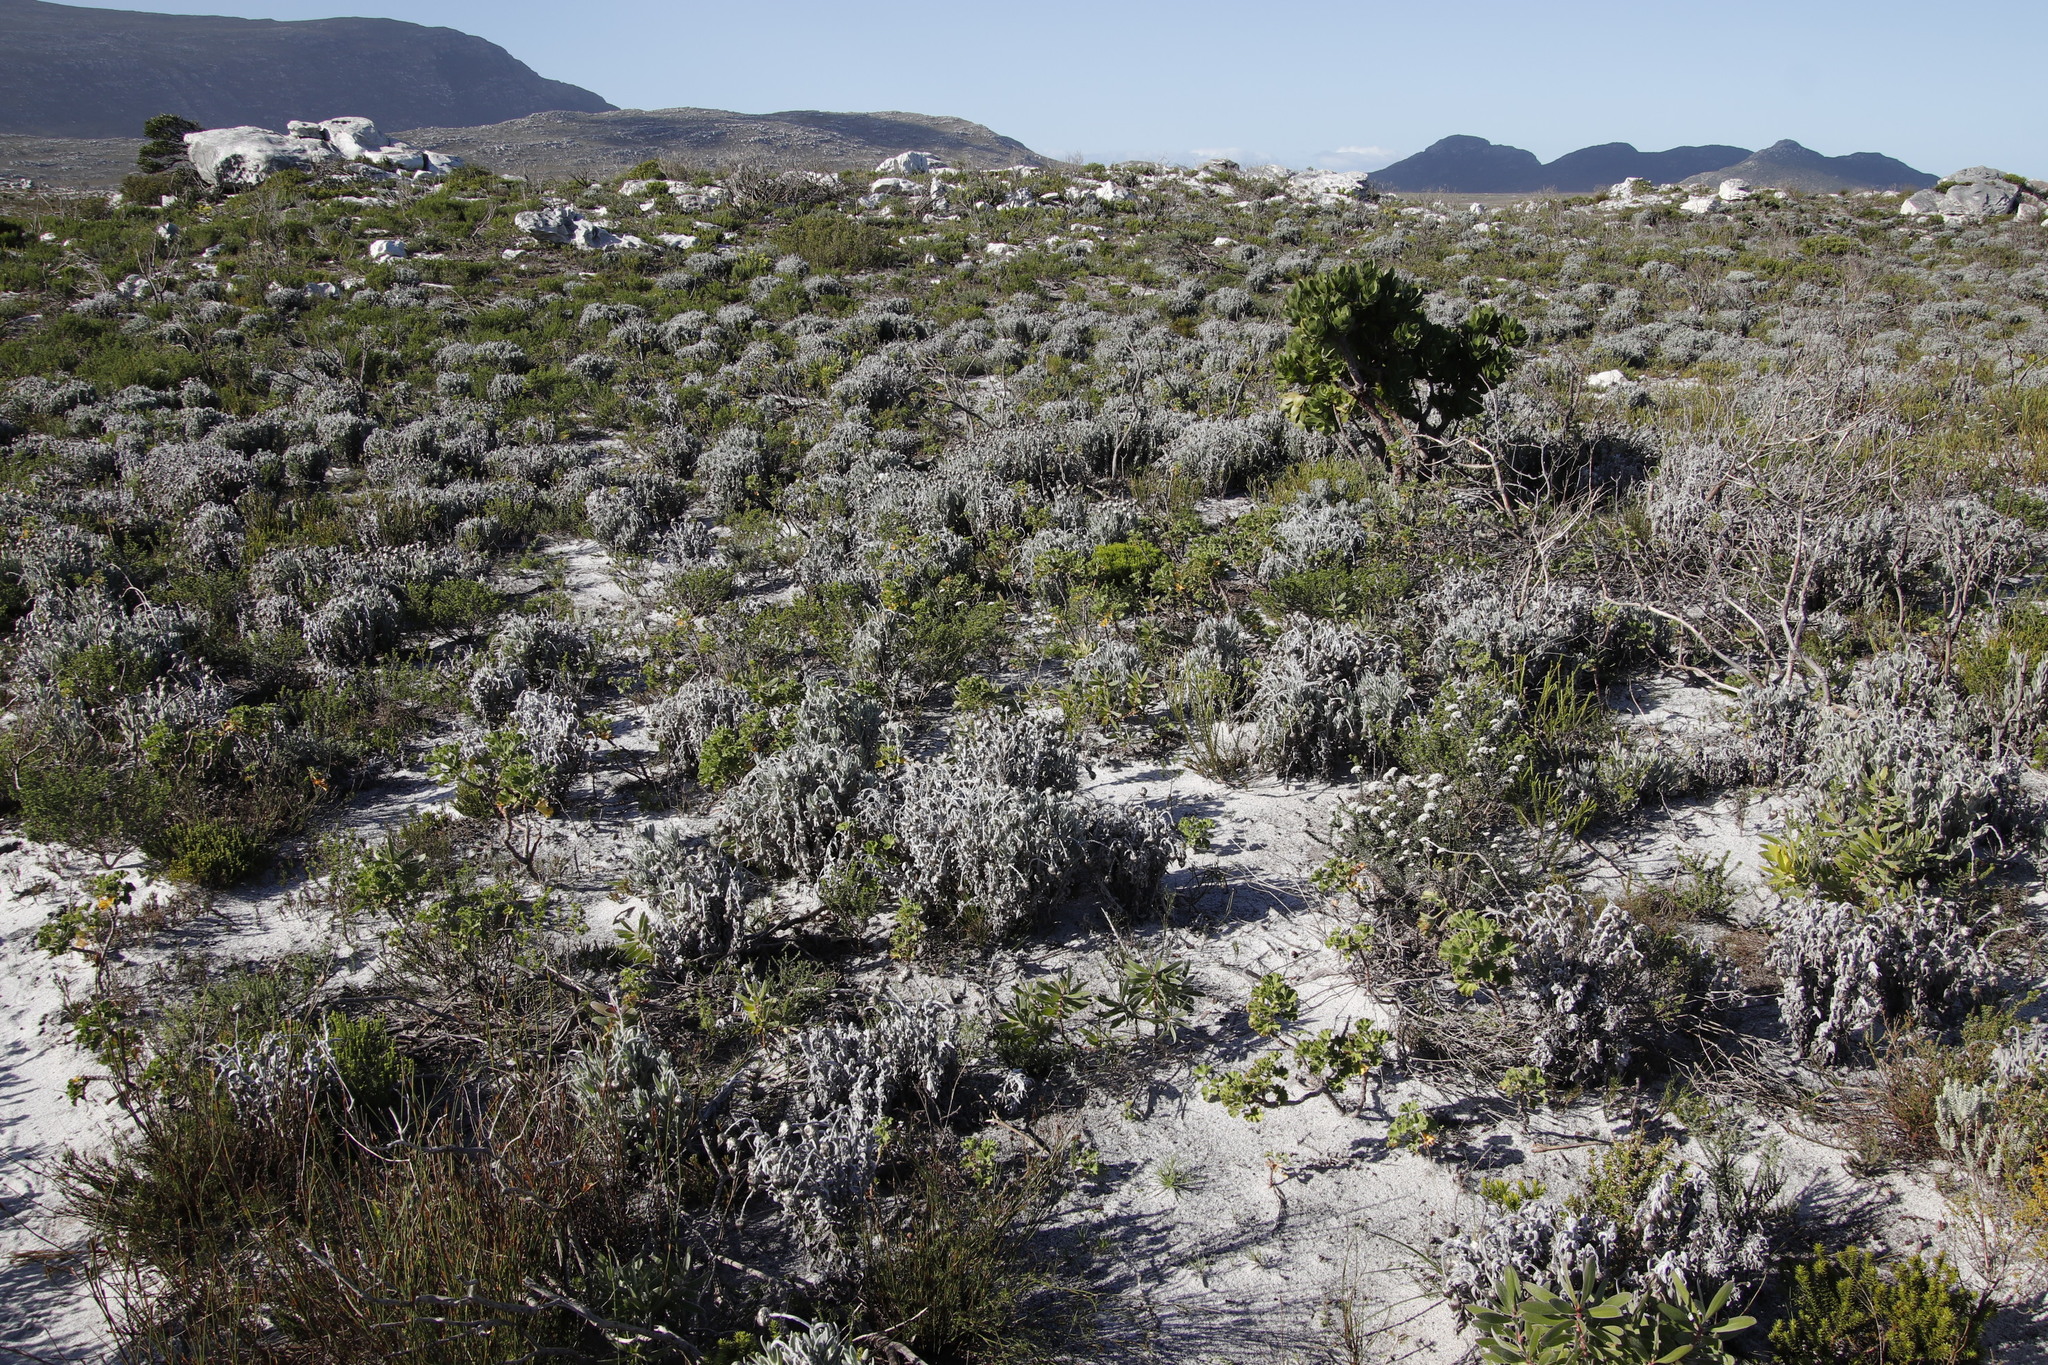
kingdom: Plantae
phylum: Tracheophyta
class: Magnoliopsida
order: Asterales
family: Asteraceae
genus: Syncarpha
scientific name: Syncarpha vestita
